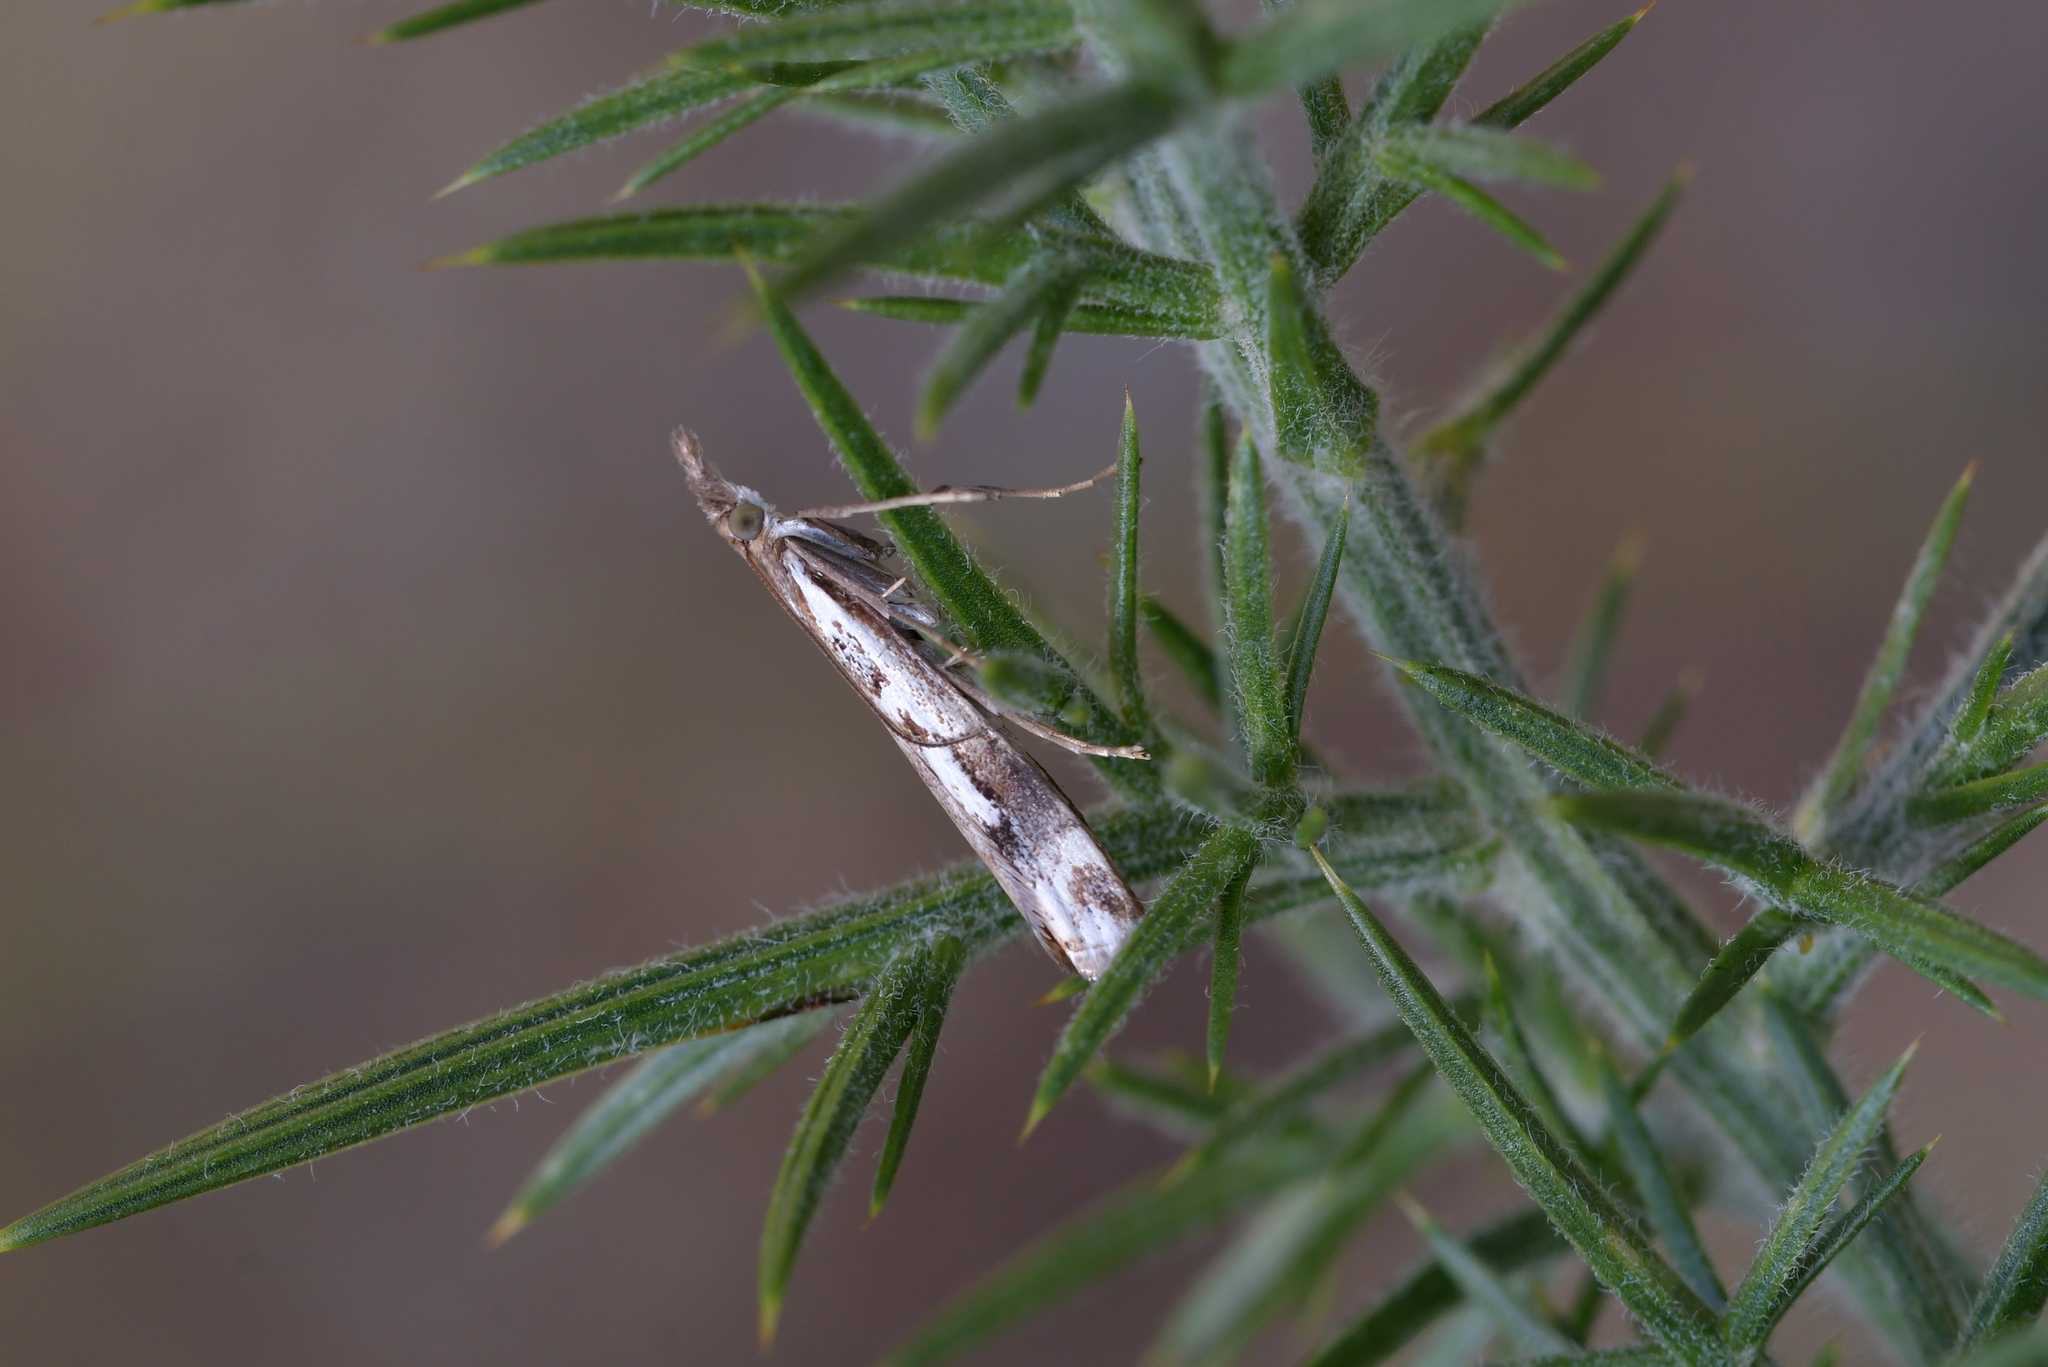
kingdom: Animalia
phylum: Arthropoda
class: Insecta
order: Lepidoptera
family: Crambidae
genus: Orocrambus
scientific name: Orocrambus vulgaris
